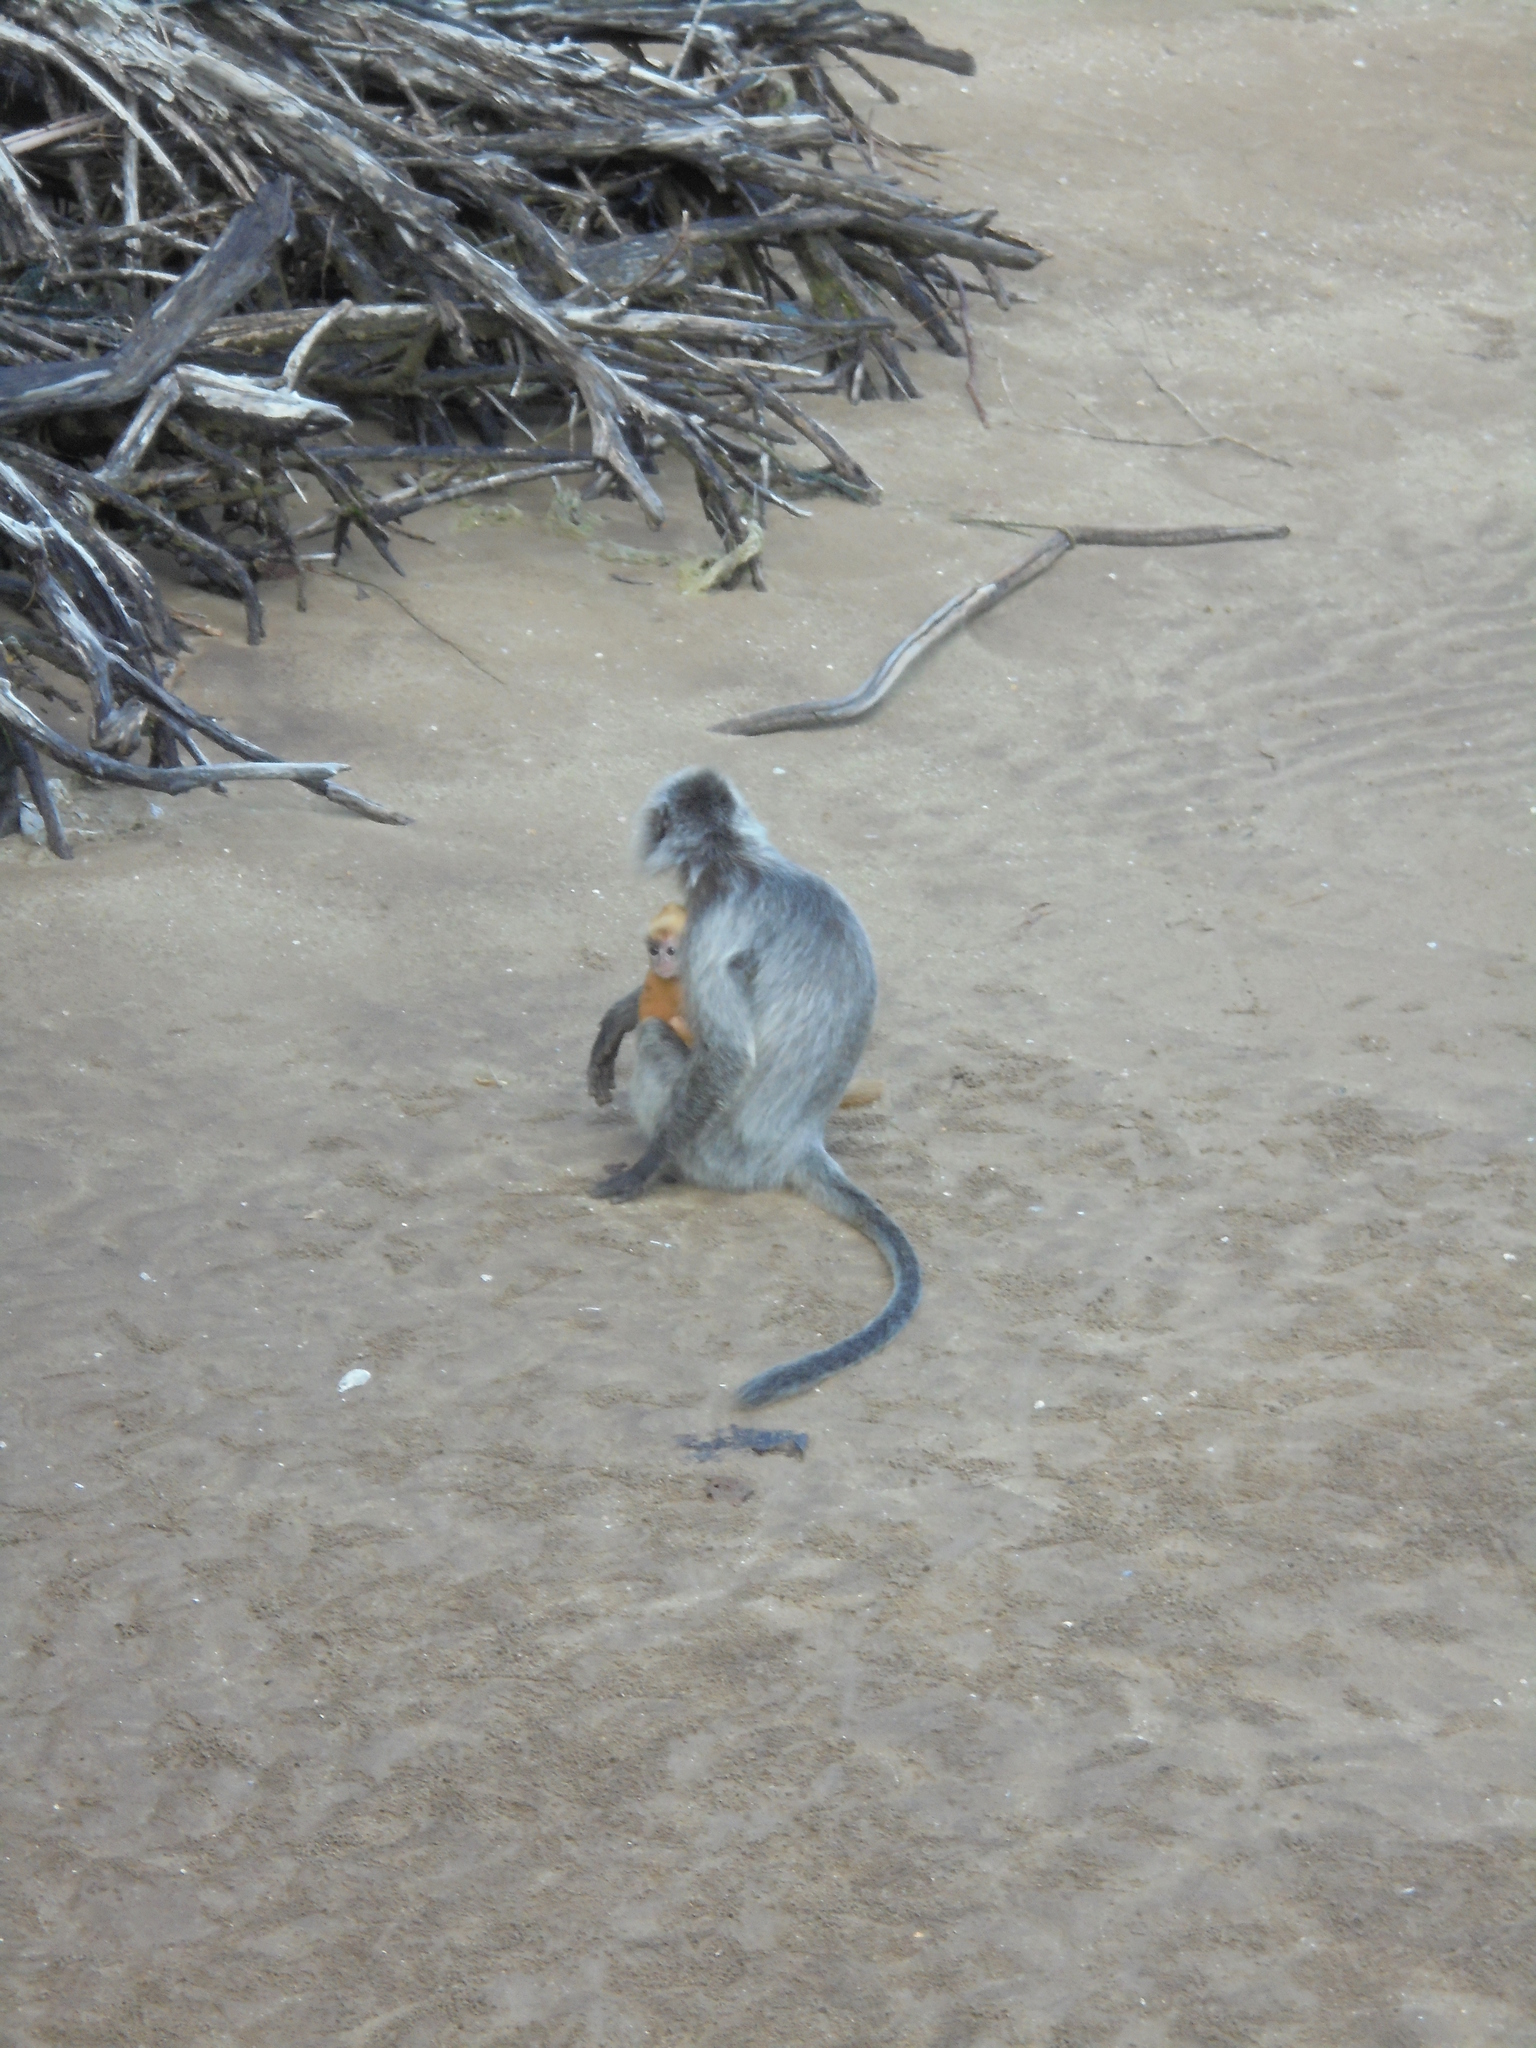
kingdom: Animalia
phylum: Chordata
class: Mammalia
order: Primates
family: Cercopithecidae
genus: Trachypithecus
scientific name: Trachypithecus cristatus
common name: Silvery lutung
